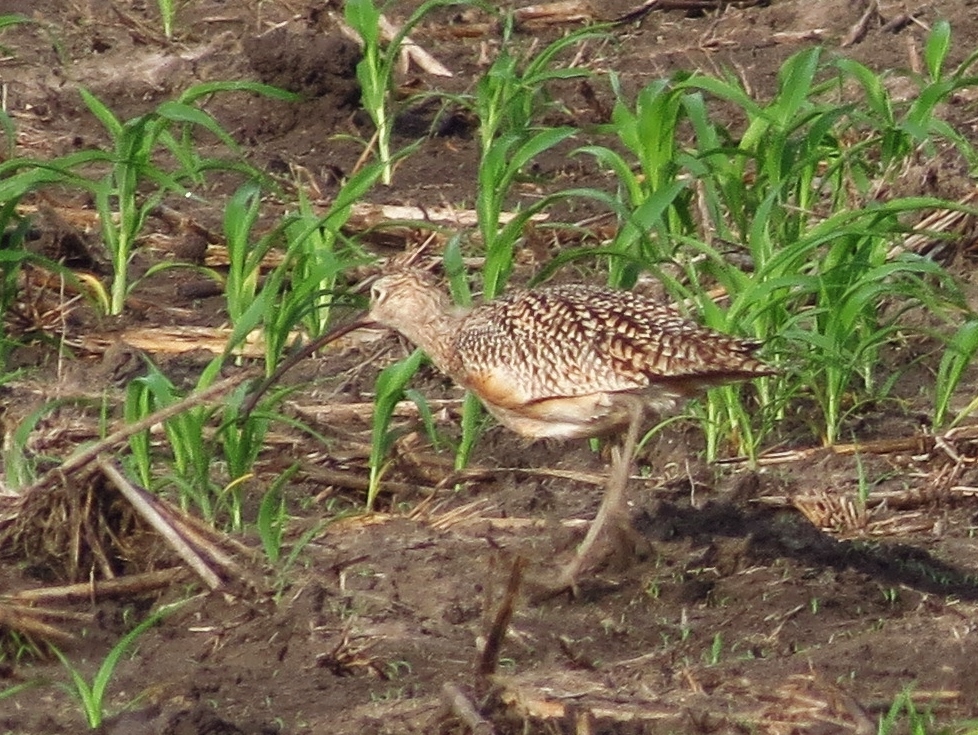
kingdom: Animalia
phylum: Chordata
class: Aves
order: Charadriiformes
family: Scolopacidae
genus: Numenius
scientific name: Numenius americanus
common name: Long-billed curlew
